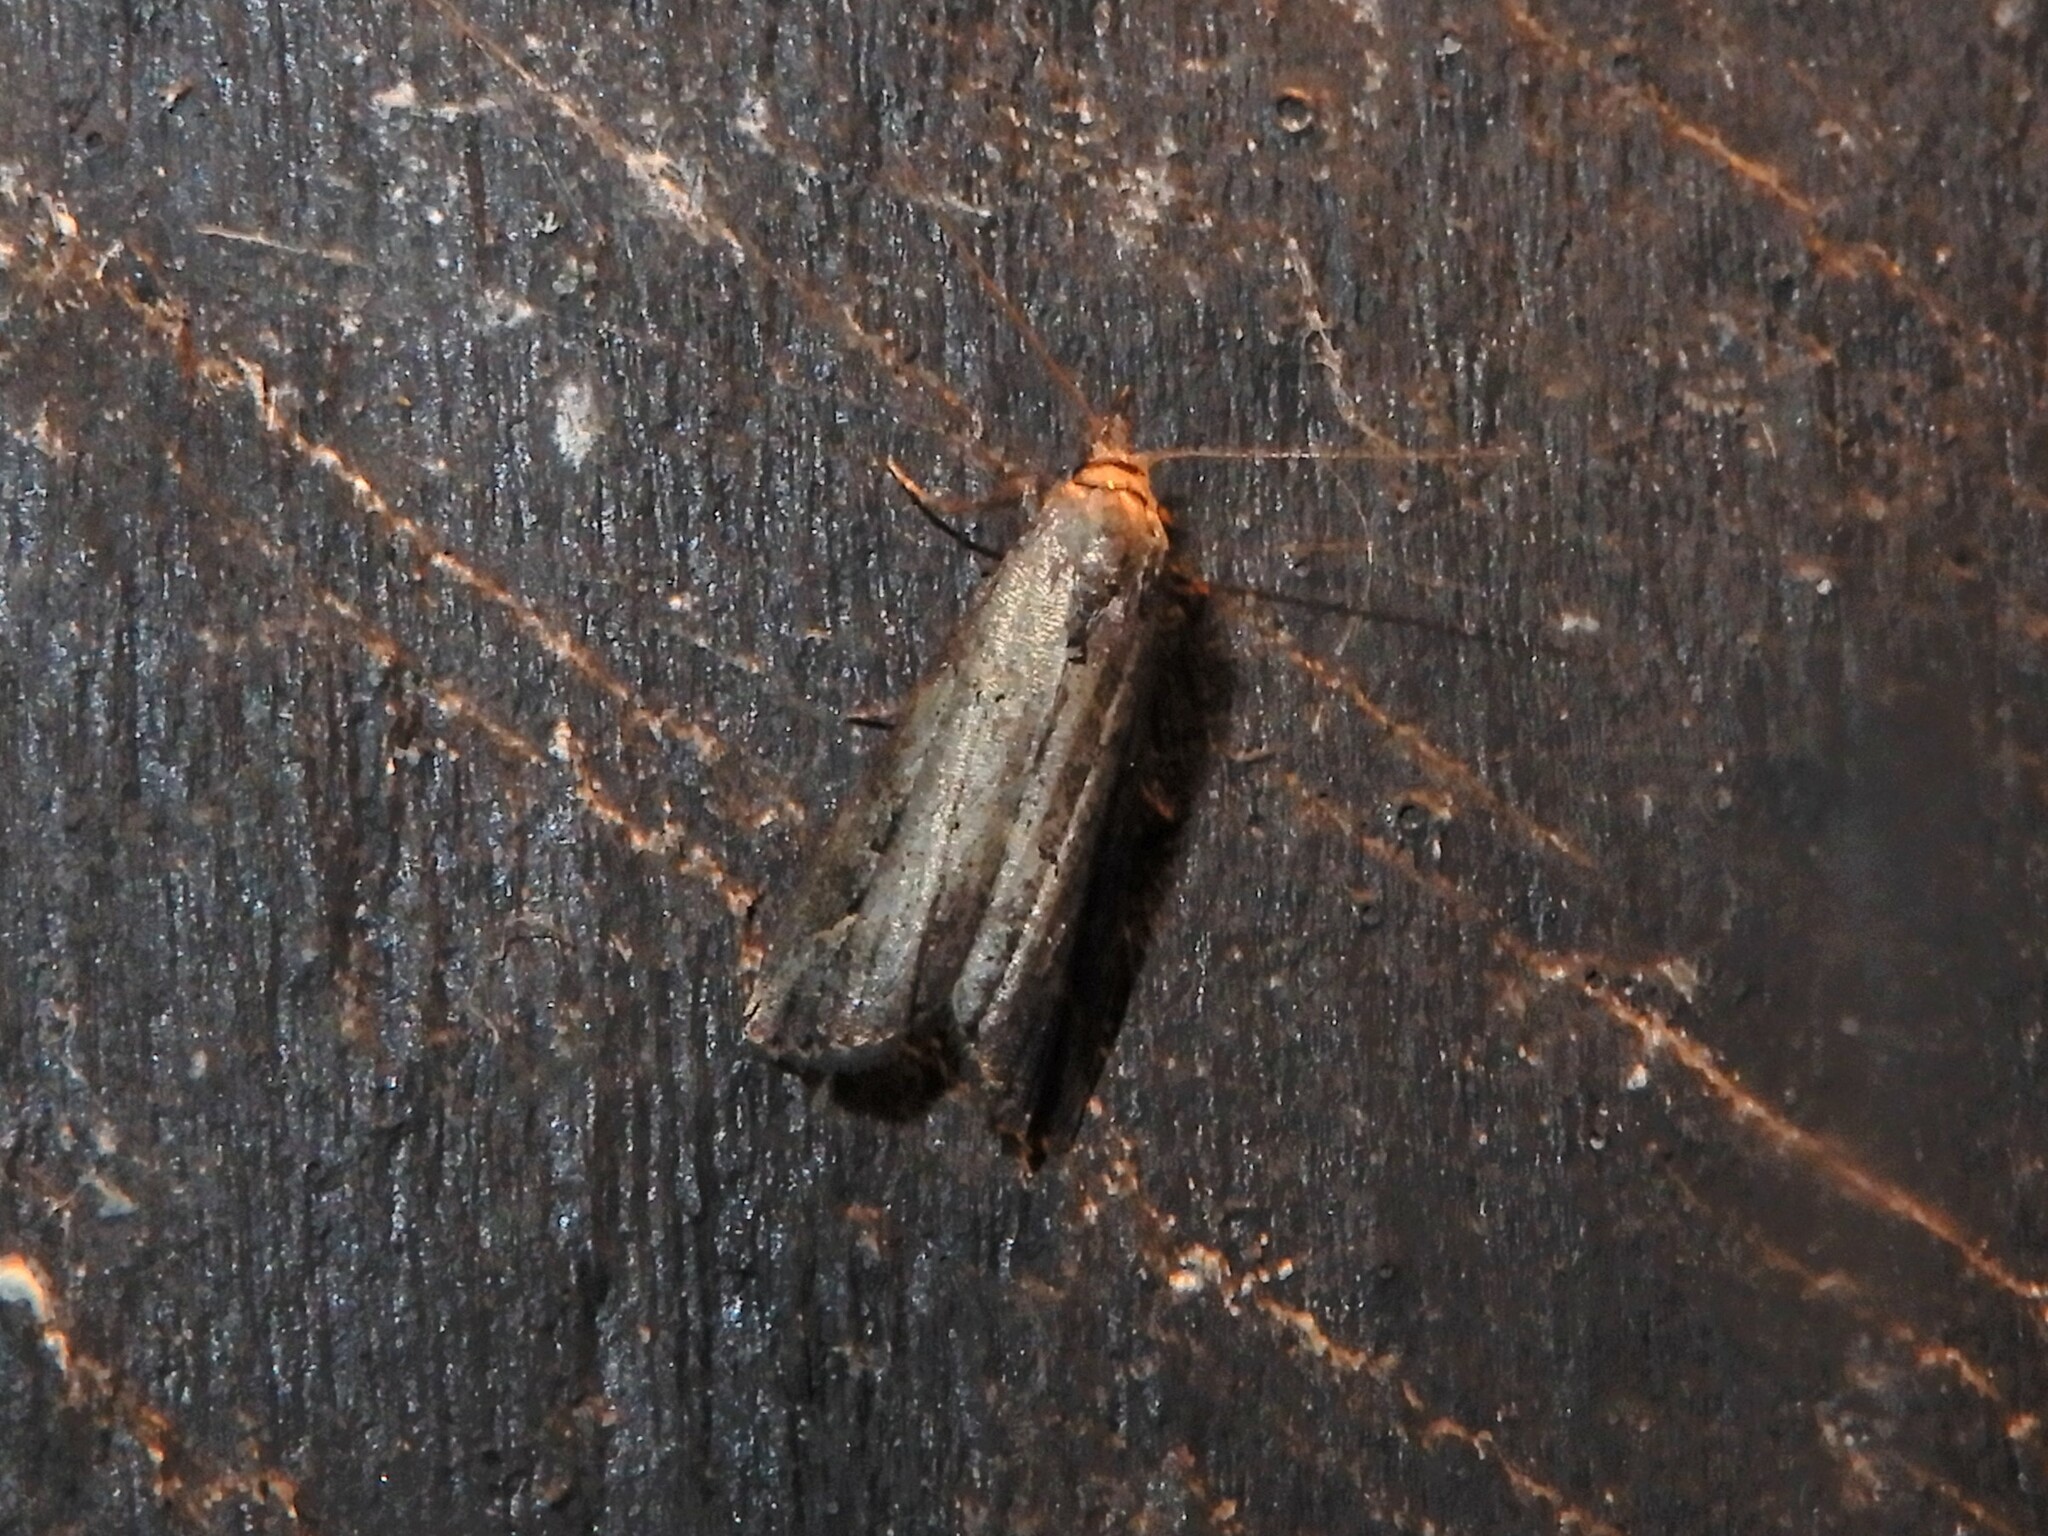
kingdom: Animalia
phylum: Arthropoda
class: Insecta
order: Lepidoptera
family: Erebidae
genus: Schrankia
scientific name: Schrankia costaestrigalis
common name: Pinion-streaked snout
